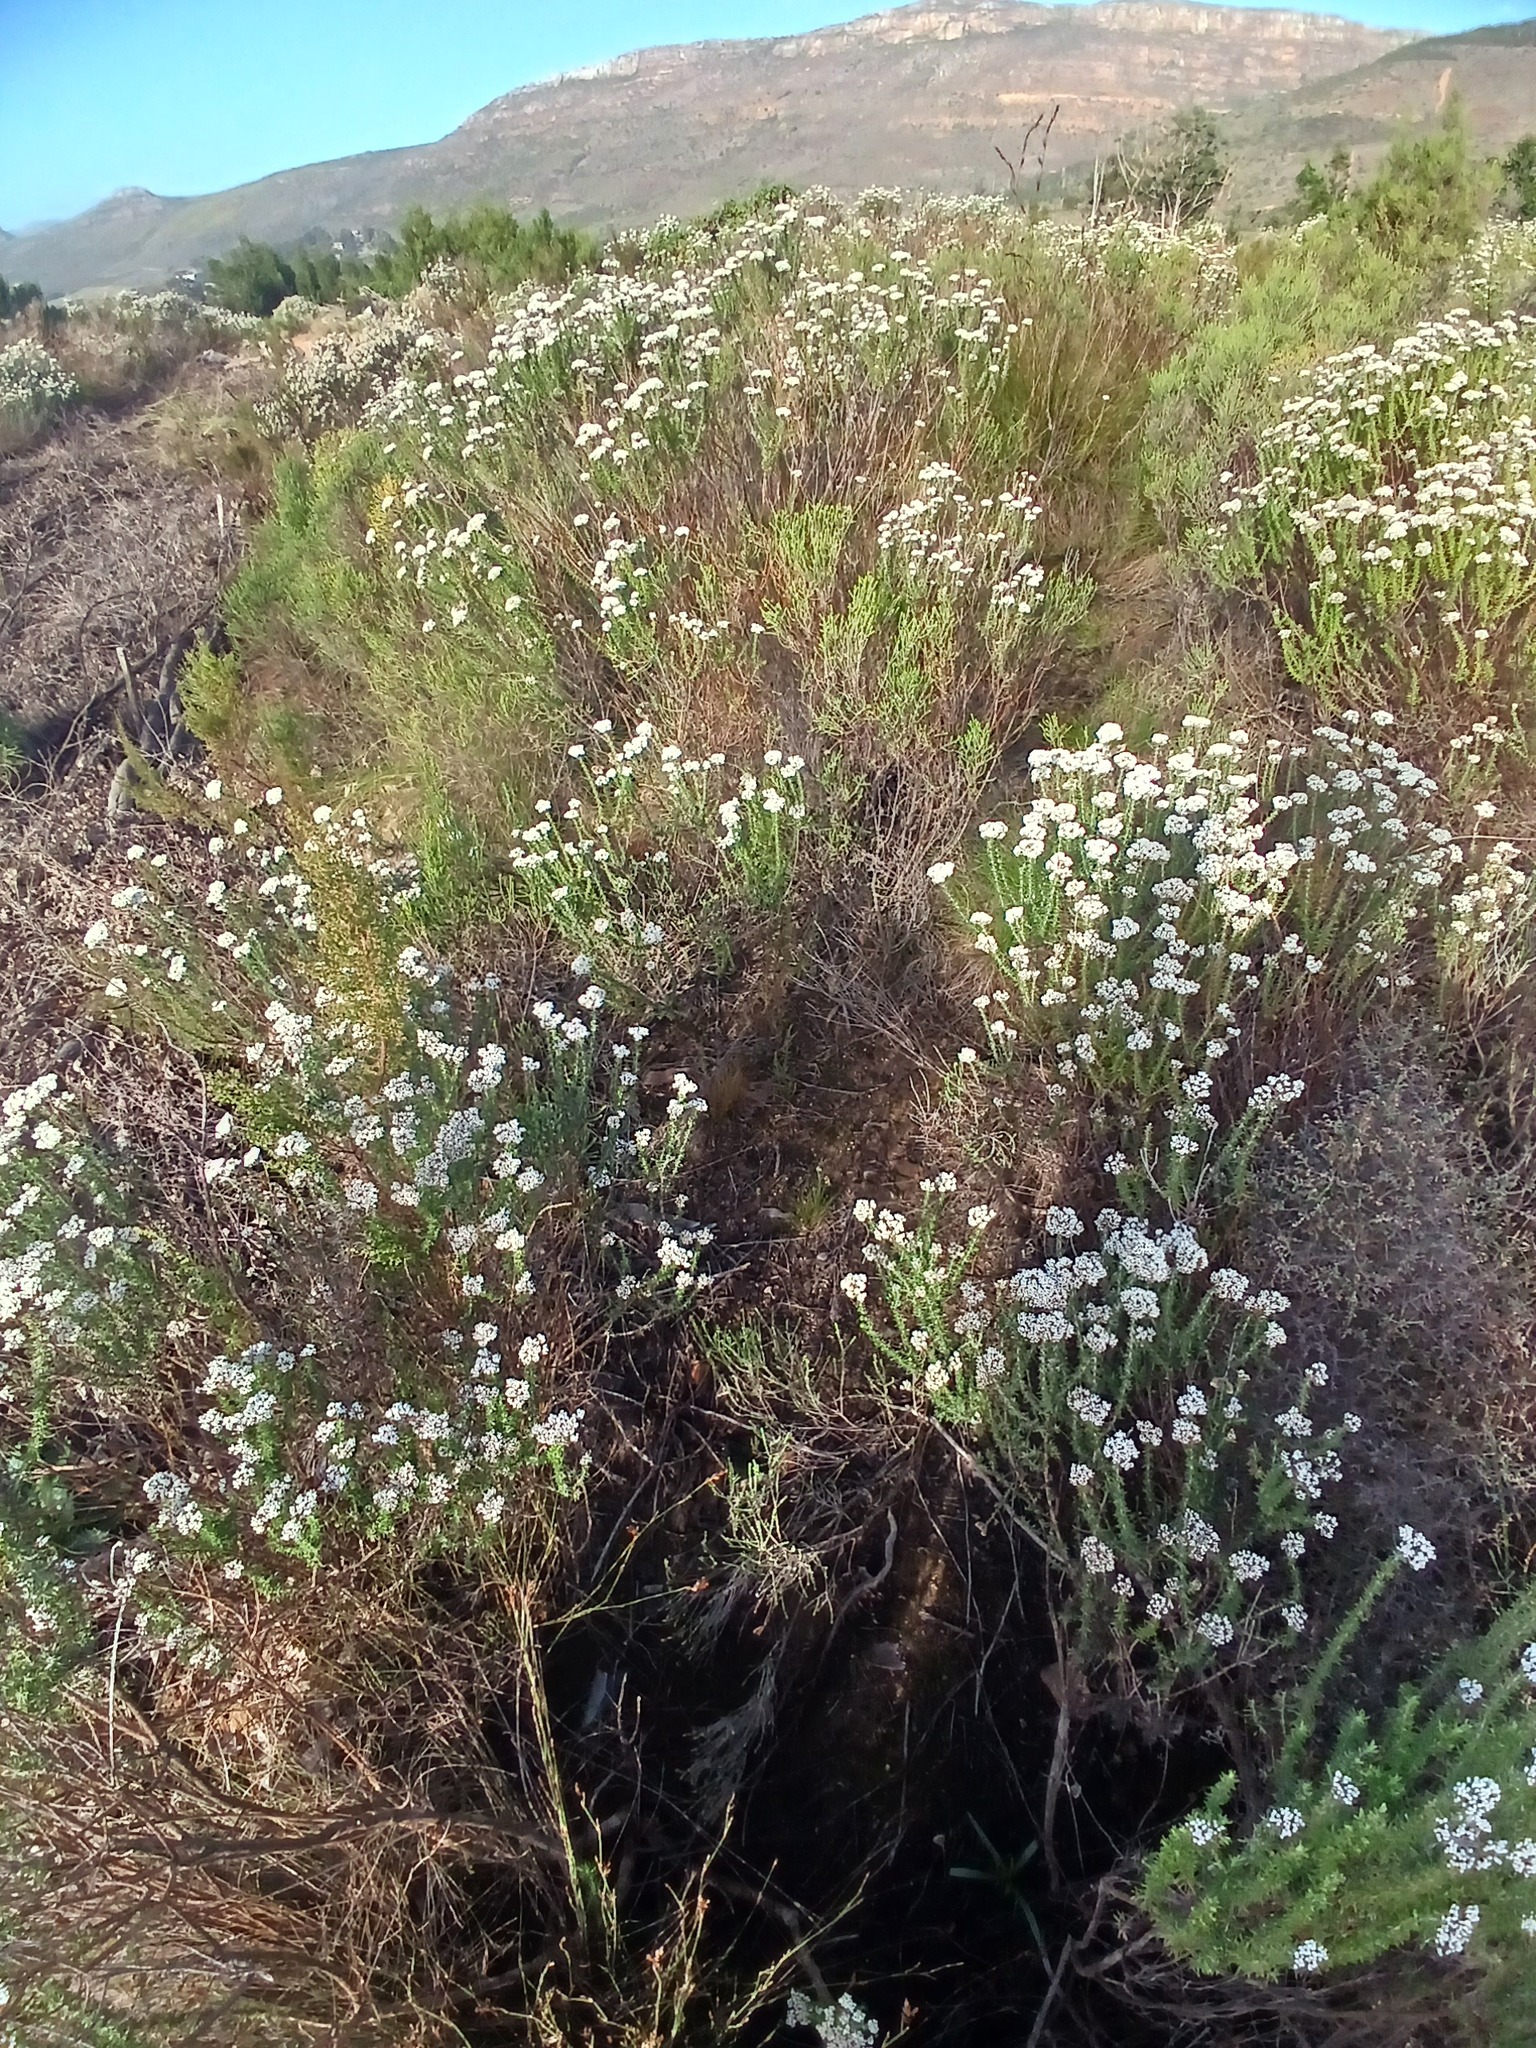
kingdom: Plantae
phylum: Tracheophyta
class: Magnoliopsida
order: Asterales
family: Asteraceae
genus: Metalasia
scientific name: Metalasia densa
